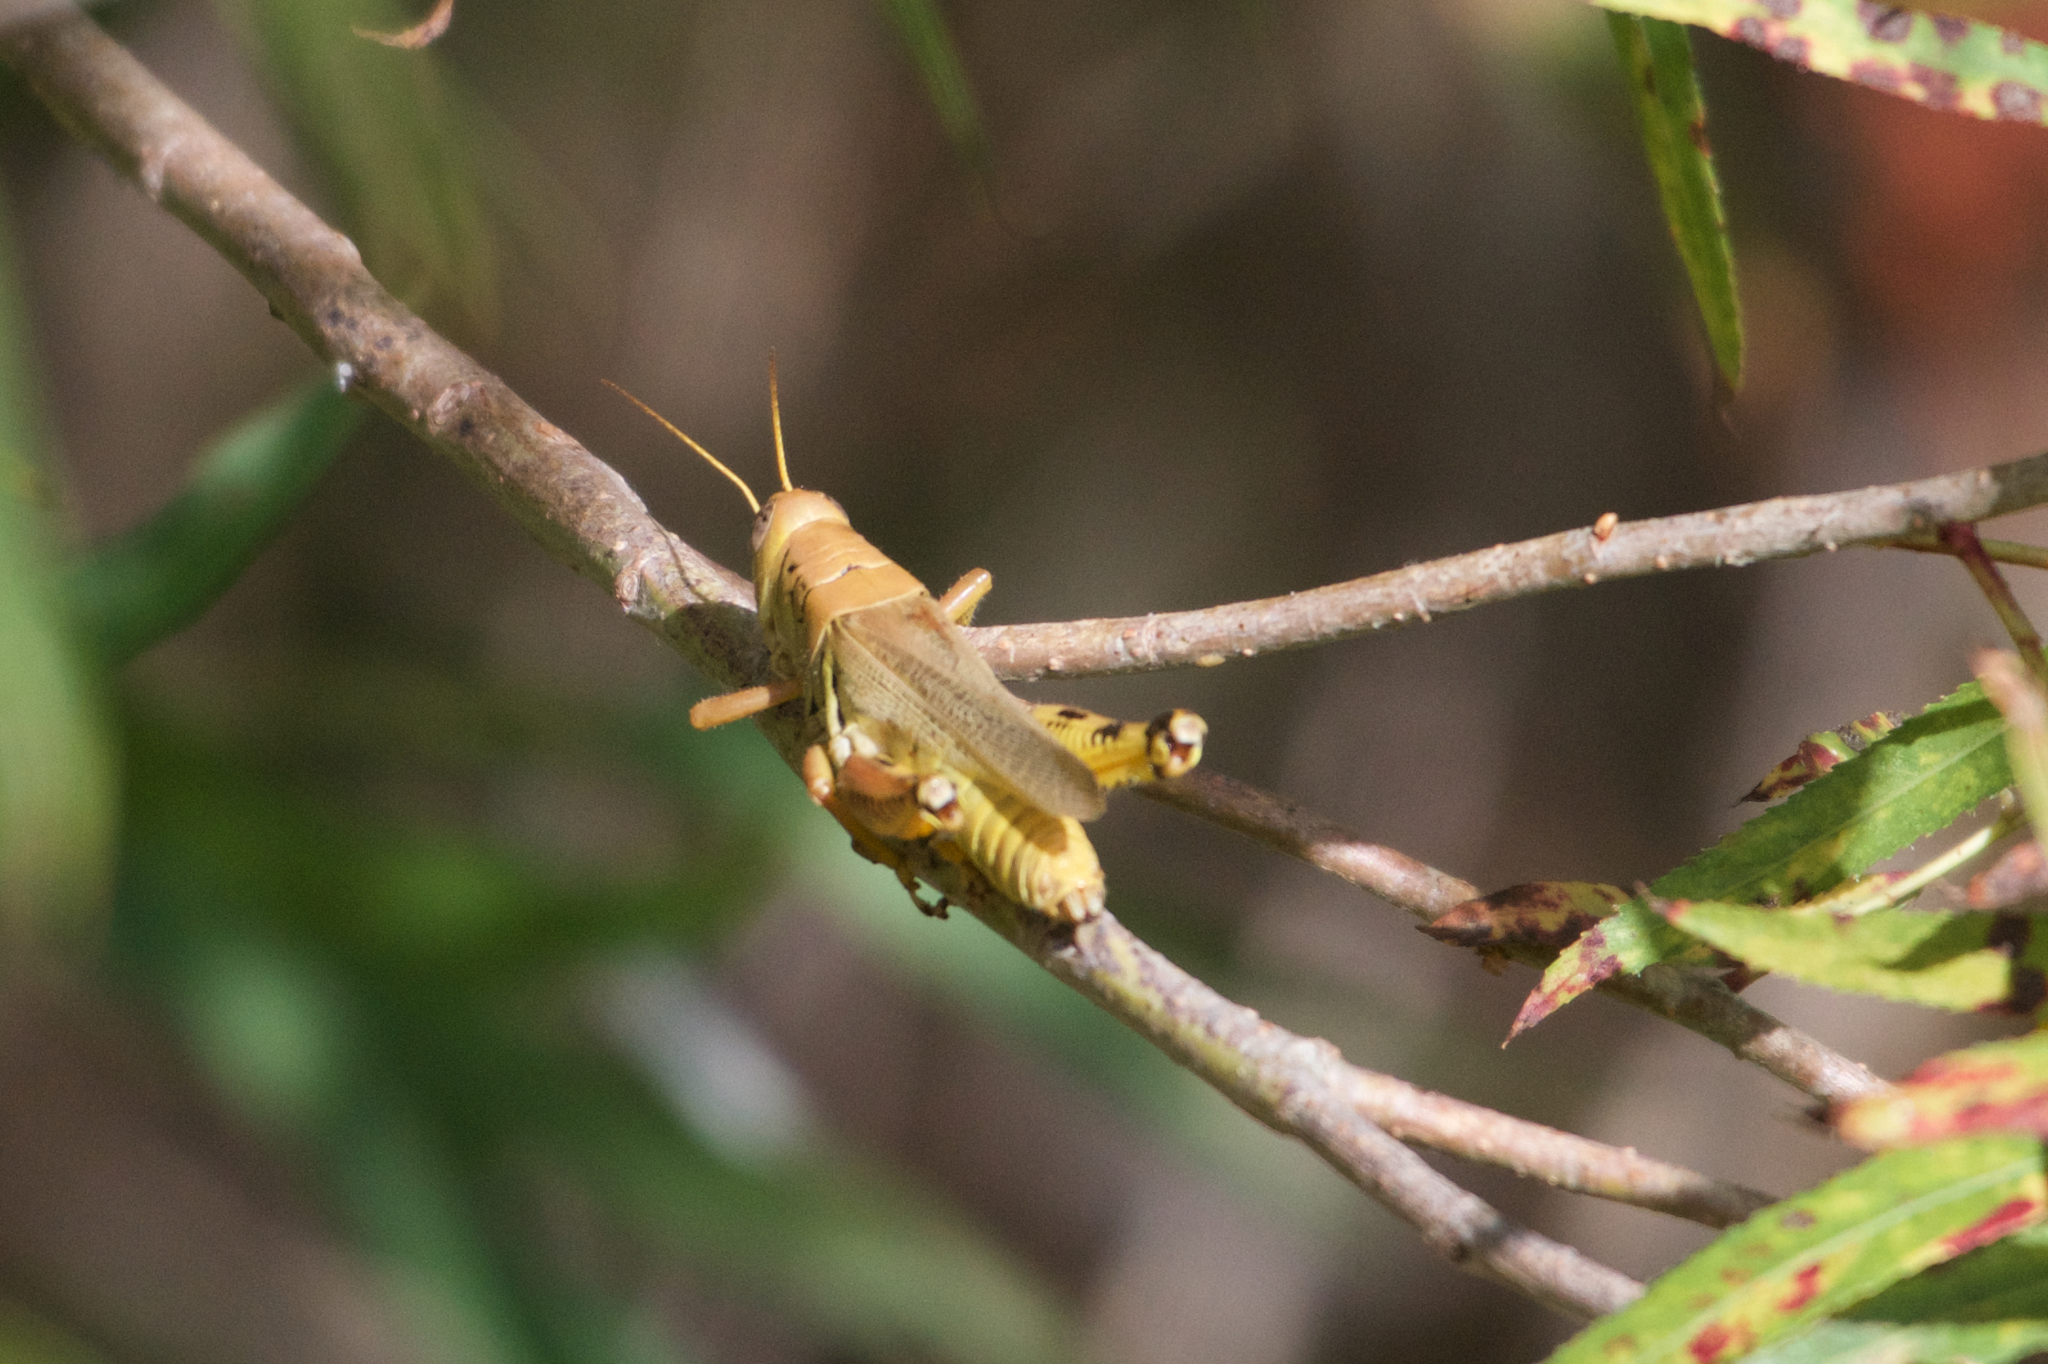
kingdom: Animalia
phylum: Arthropoda
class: Insecta
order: Orthoptera
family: Acrididae
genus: Melanoplus
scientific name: Melanoplus differentialis
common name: Differential grasshopper
